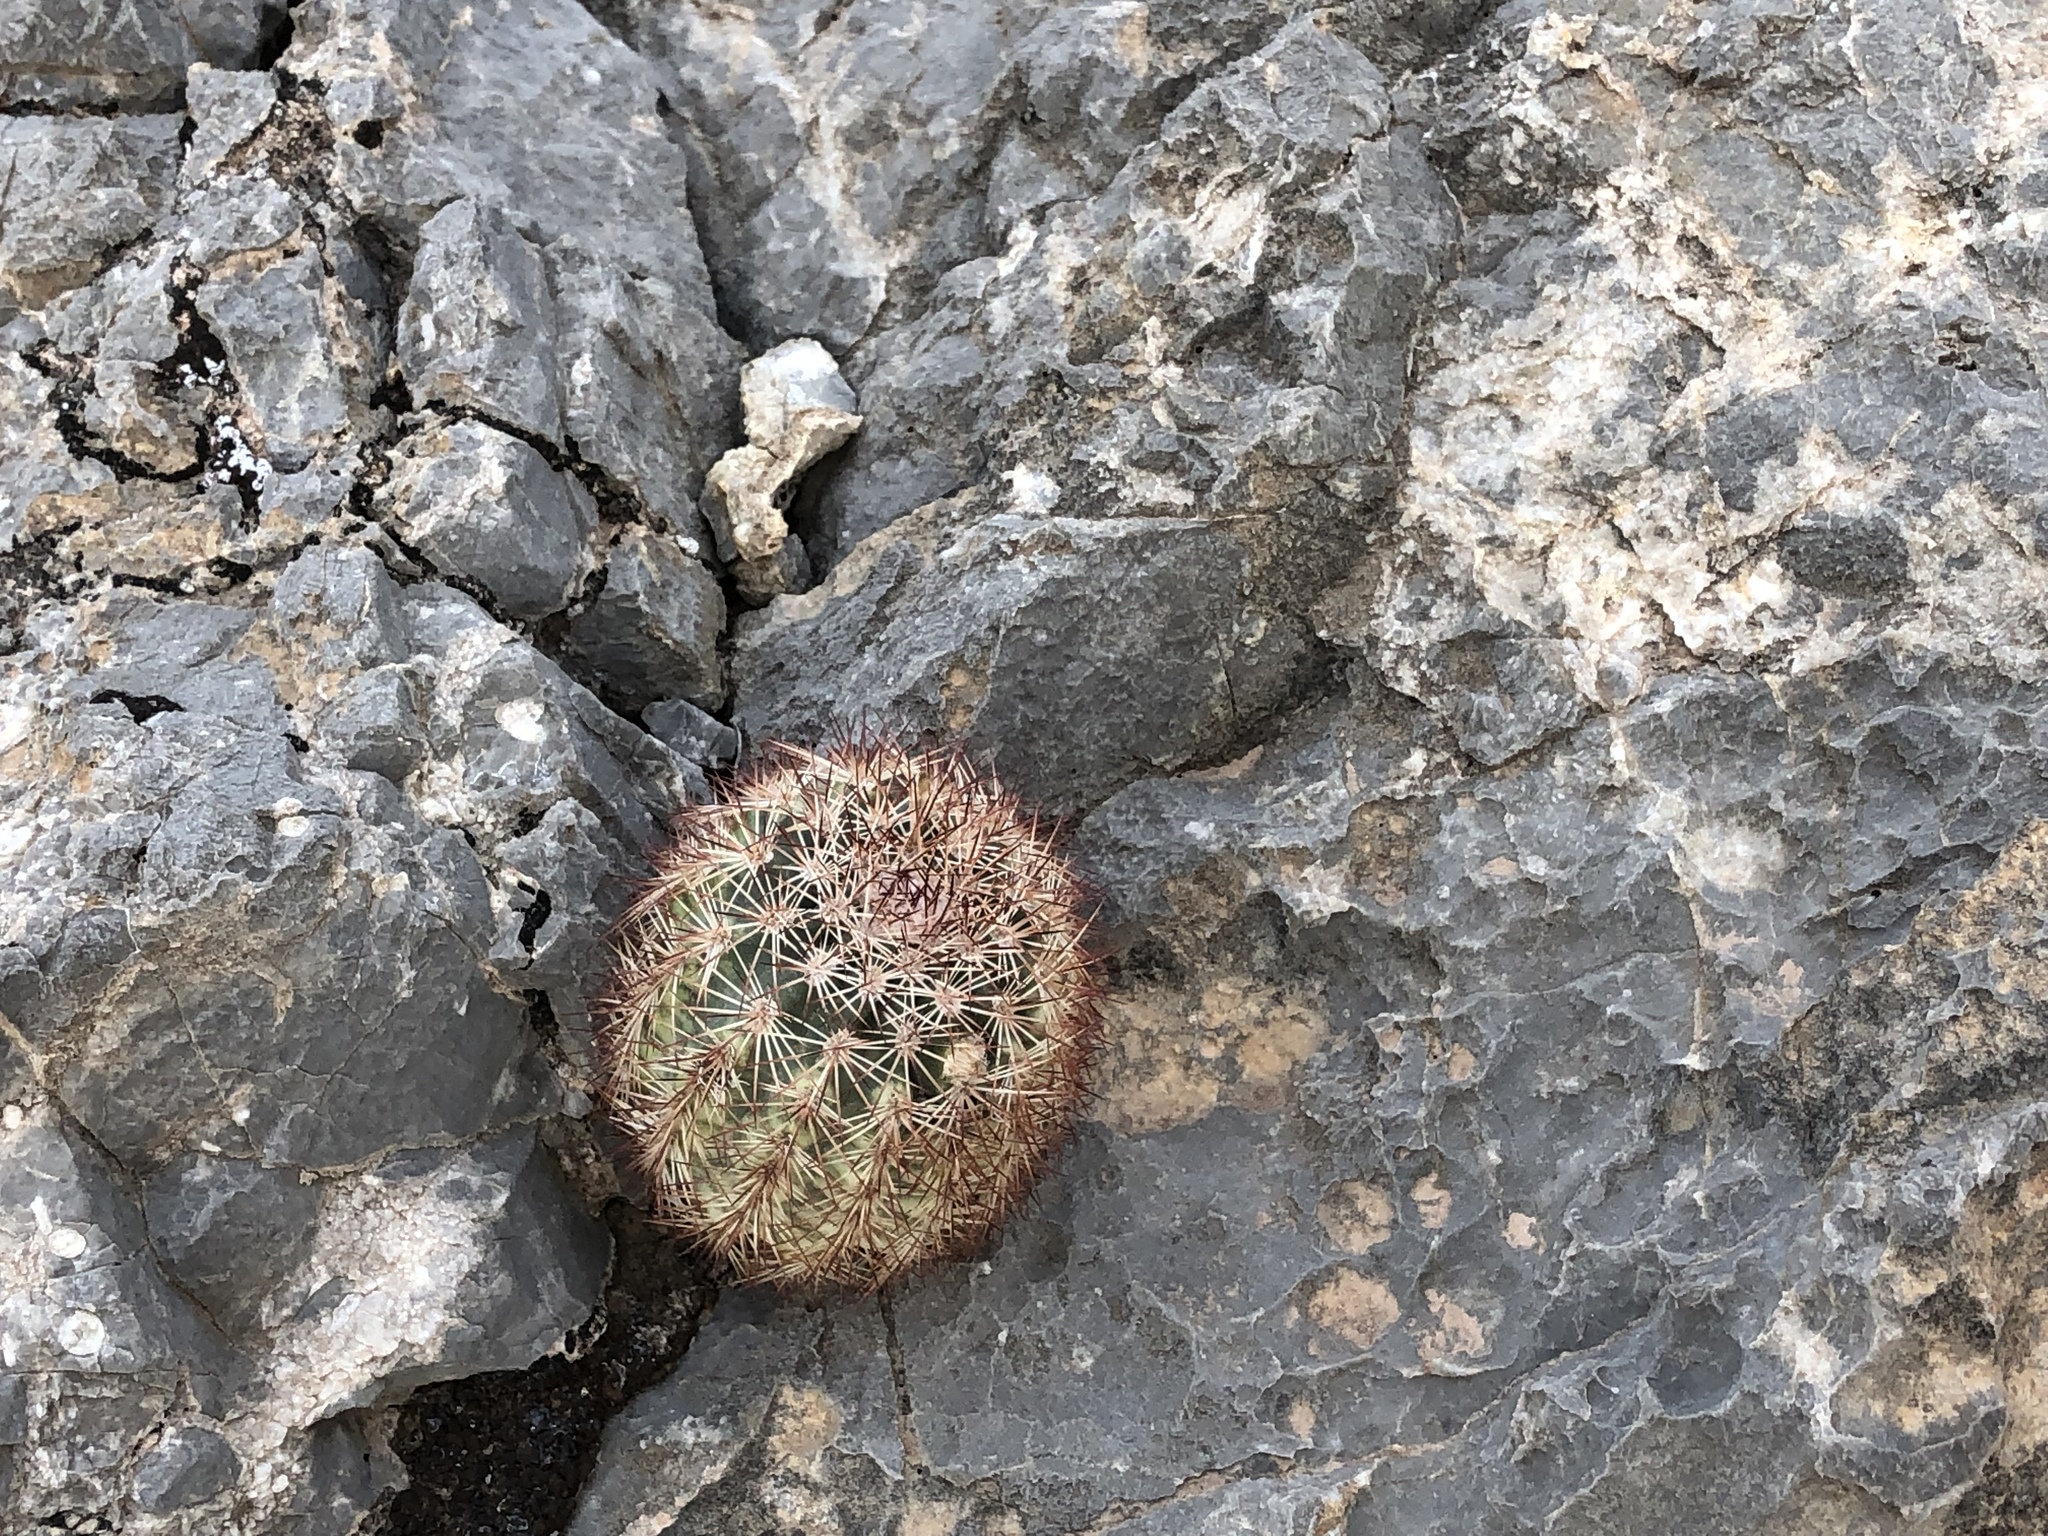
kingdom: Plantae
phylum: Tracheophyta
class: Magnoliopsida
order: Caryophyllales
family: Cactaceae
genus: Echinocereus
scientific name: Echinocereus roetteri
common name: Lloyd's hedgehog cactus
